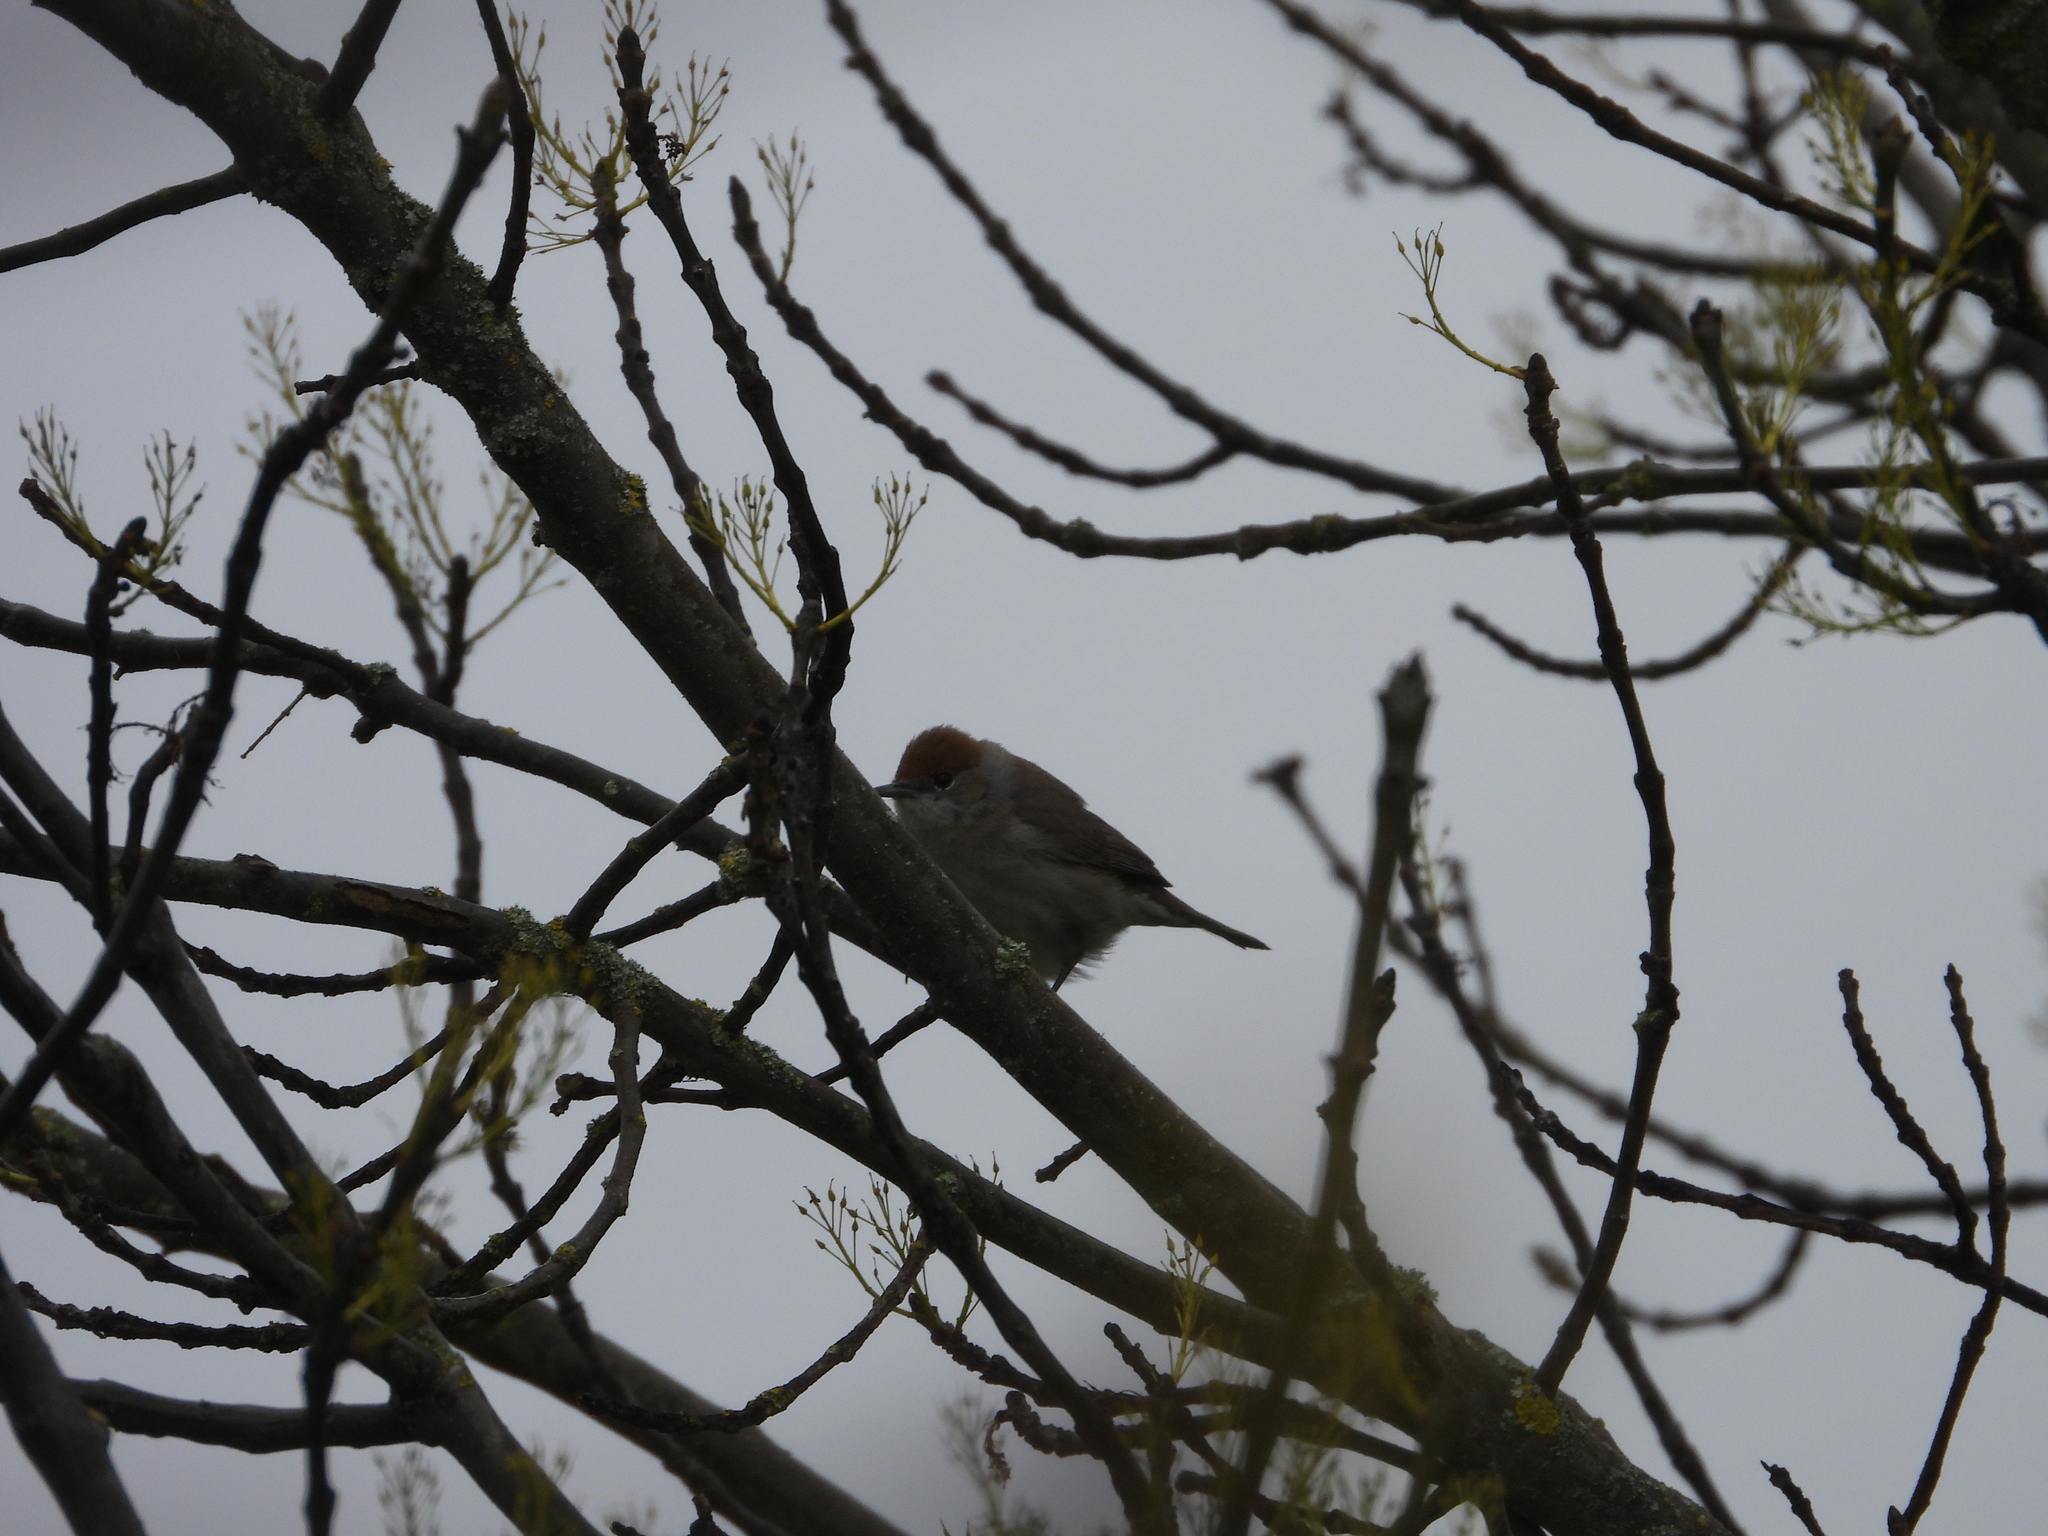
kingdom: Animalia
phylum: Chordata
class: Aves
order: Passeriformes
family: Sylviidae
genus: Sylvia
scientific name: Sylvia atricapilla
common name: Eurasian blackcap
